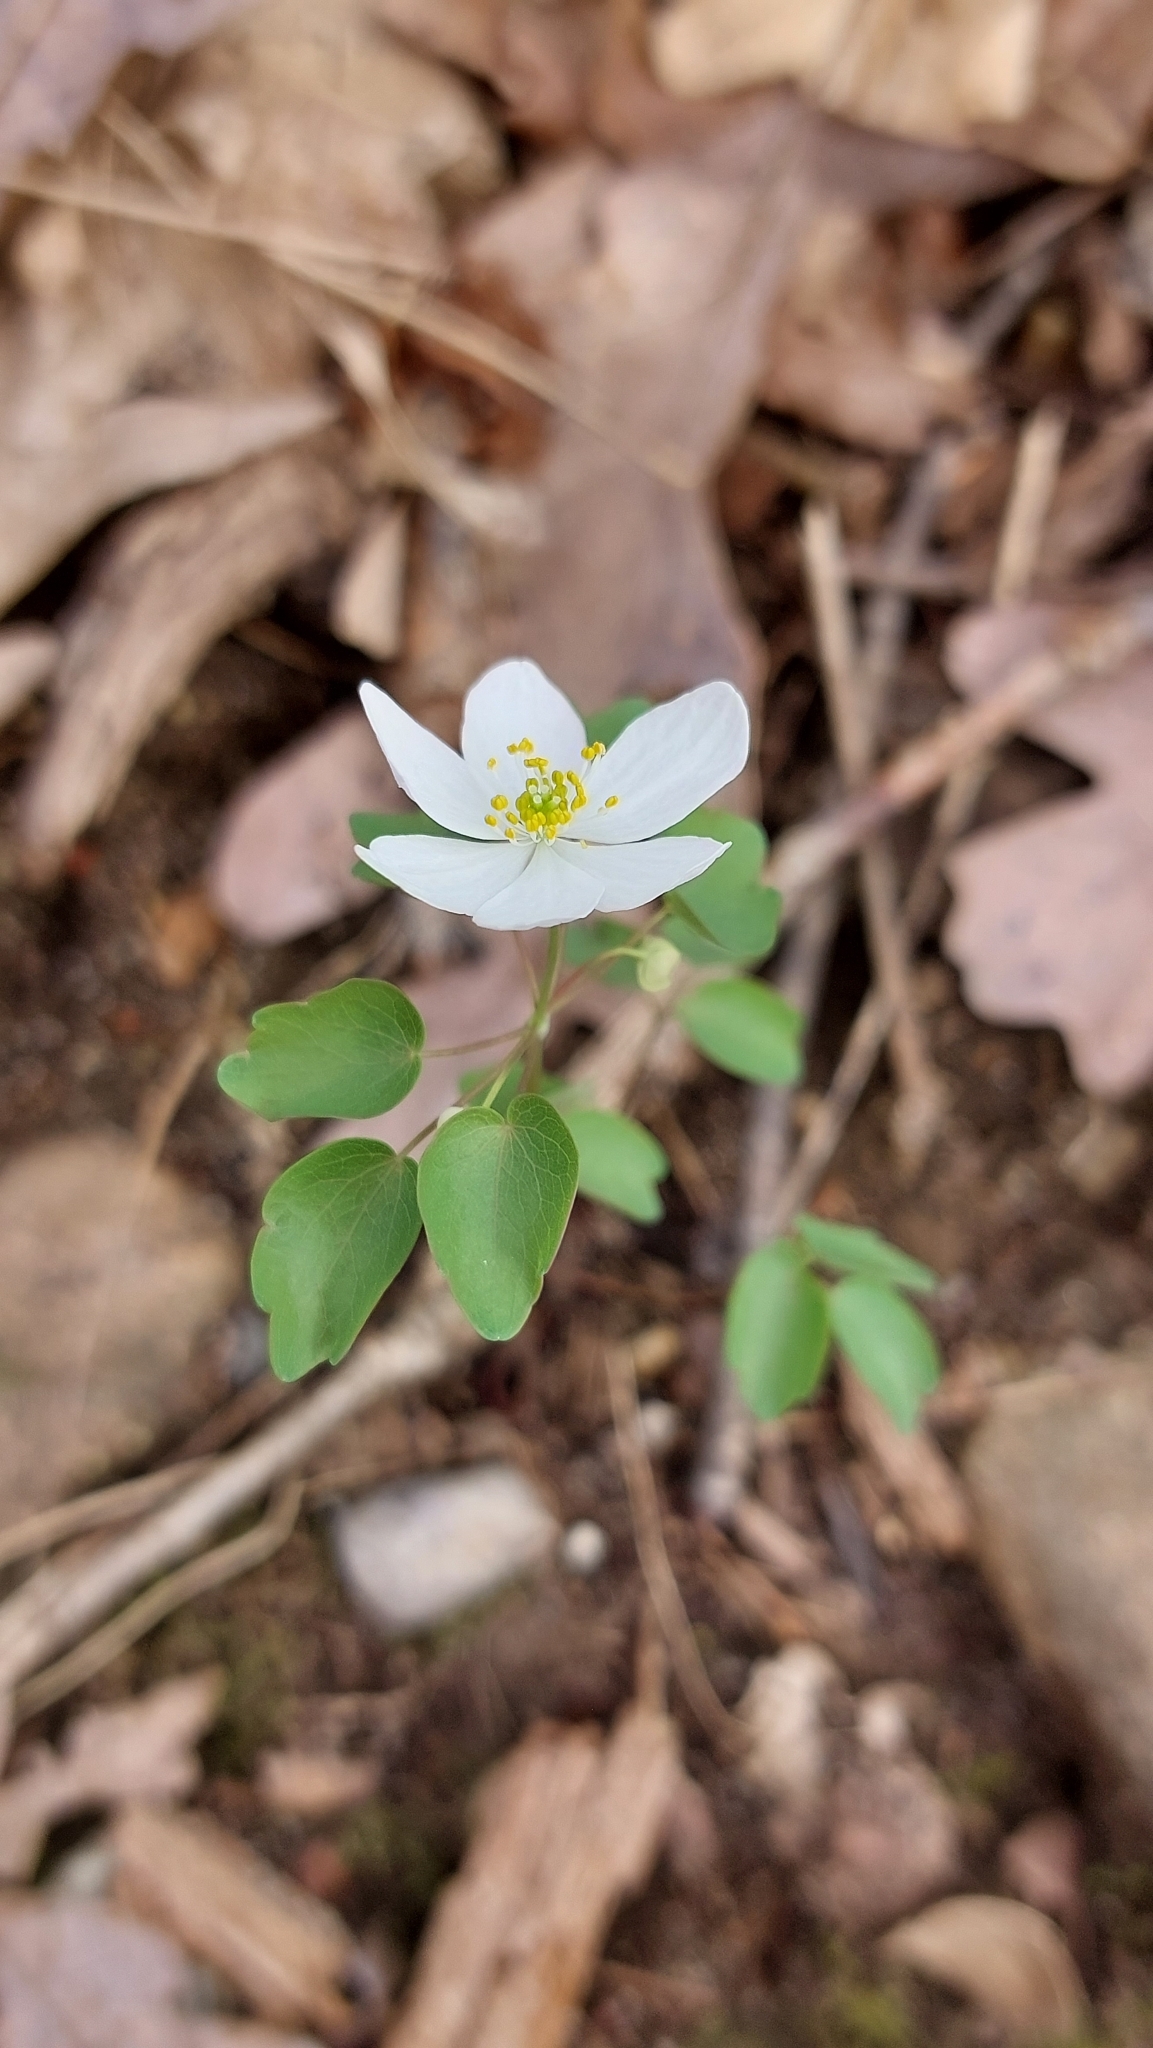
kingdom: Plantae
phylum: Tracheophyta
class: Magnoliopsida
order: Ranunculales
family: Ranunculaceae
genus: Thalictrum
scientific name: Thalictrum thalictroides
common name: Rue-anemone
